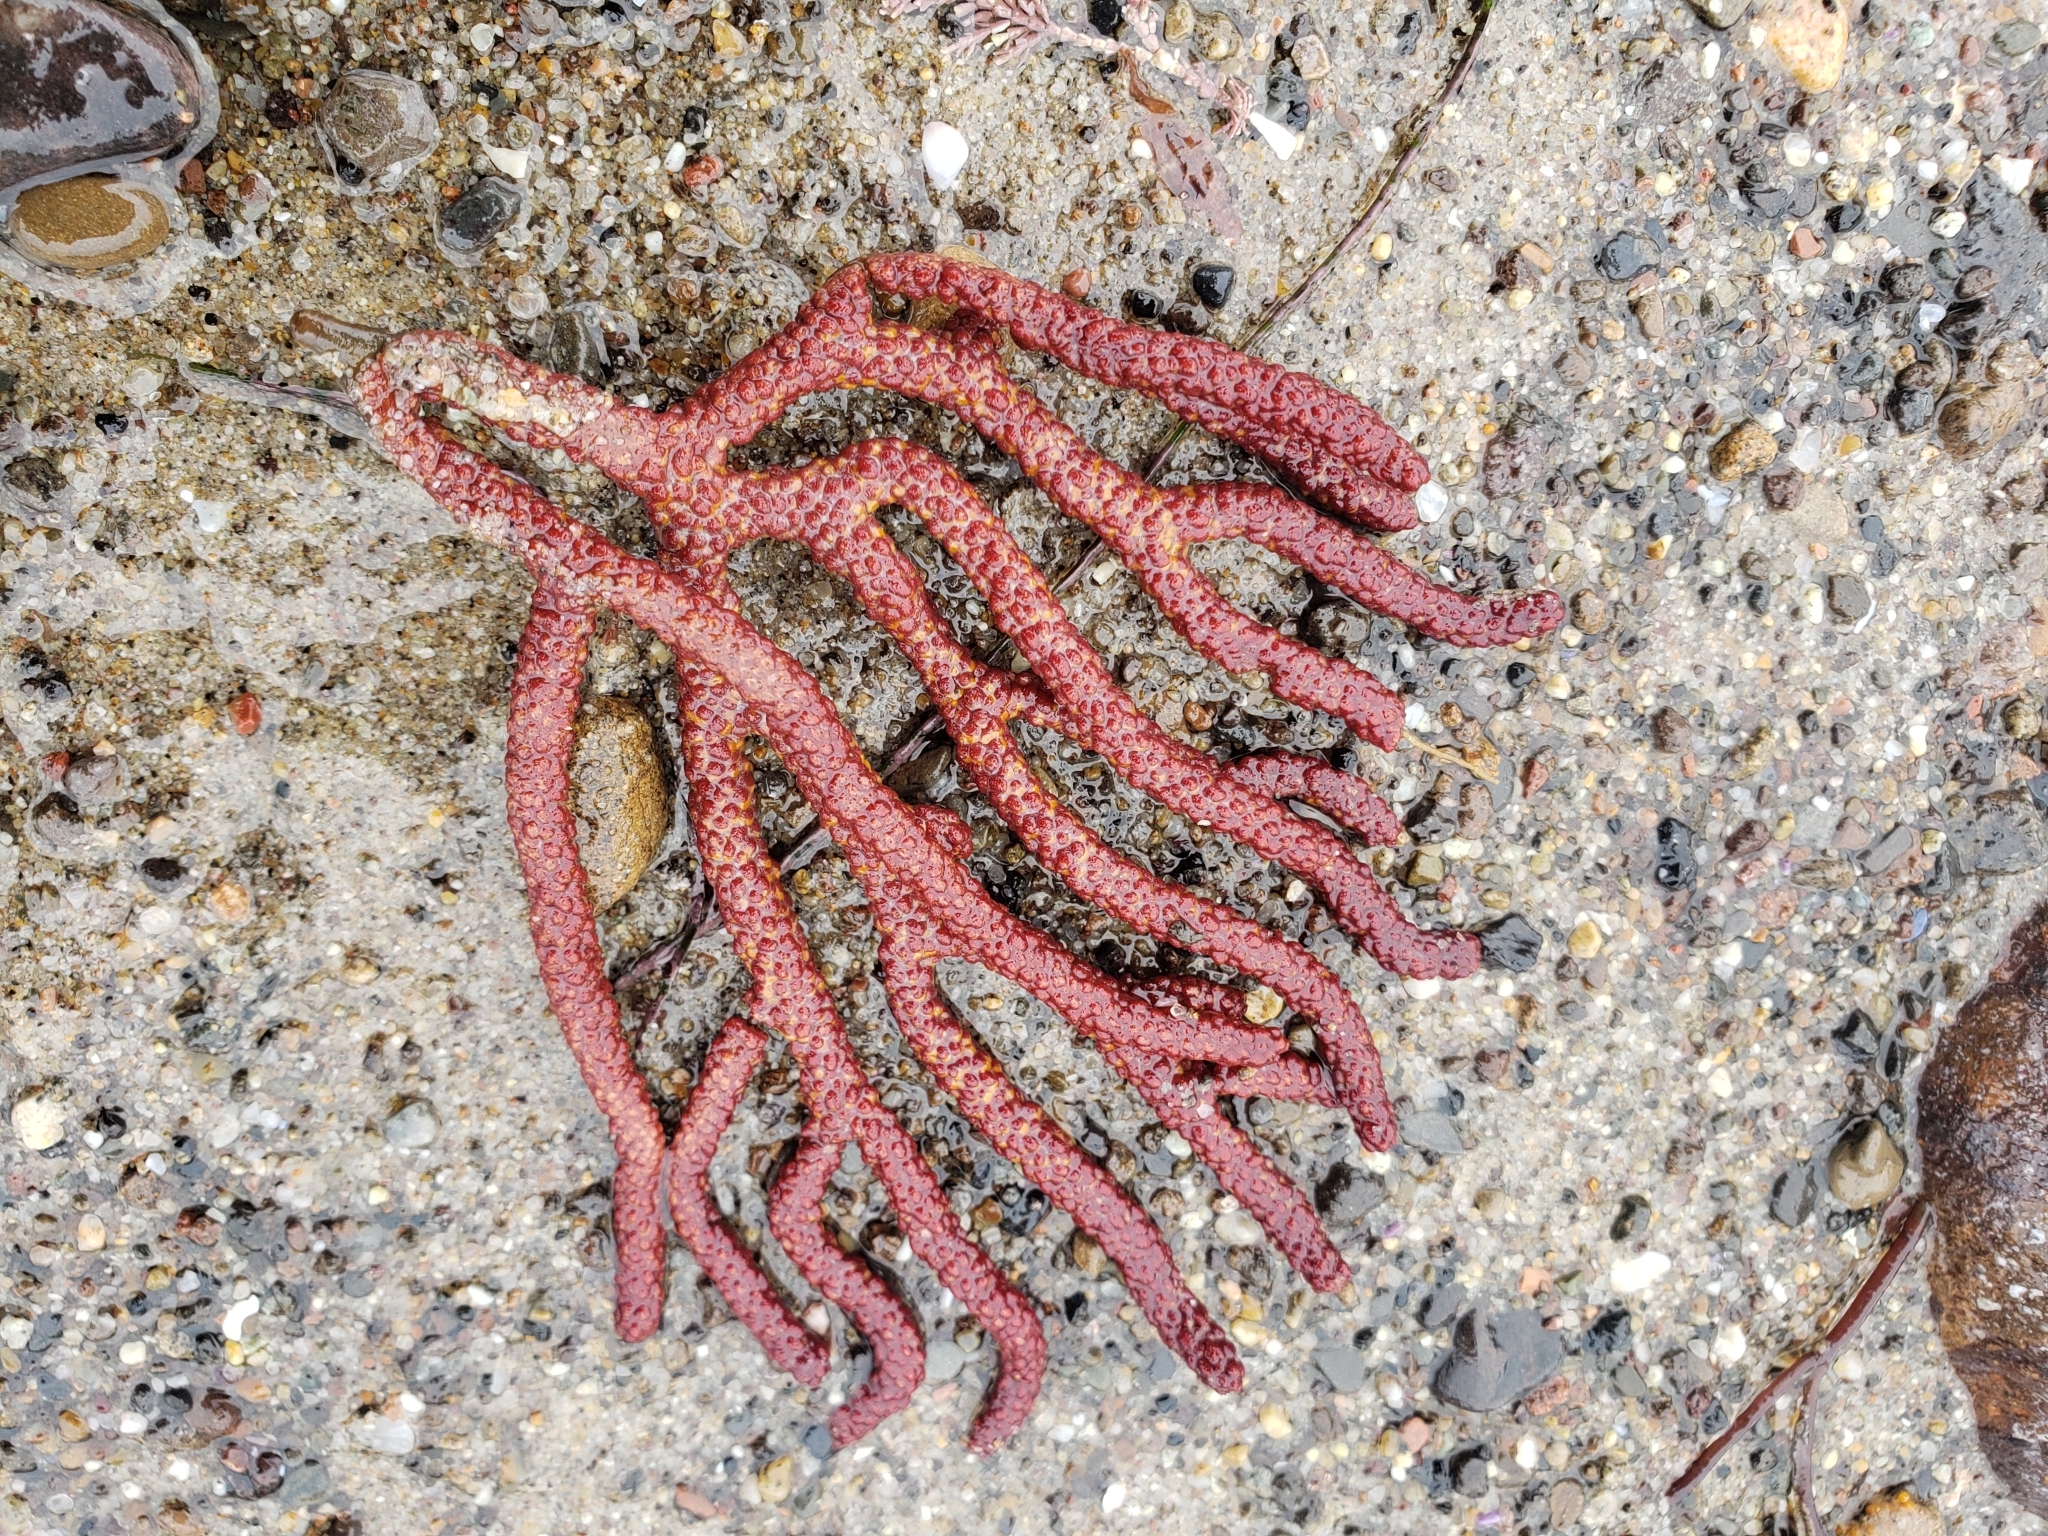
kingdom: Animalia
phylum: Cnidaria
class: Anthozoa
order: Malacalcyonacea
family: Plexauridae
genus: Muricea
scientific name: Muricea californica
